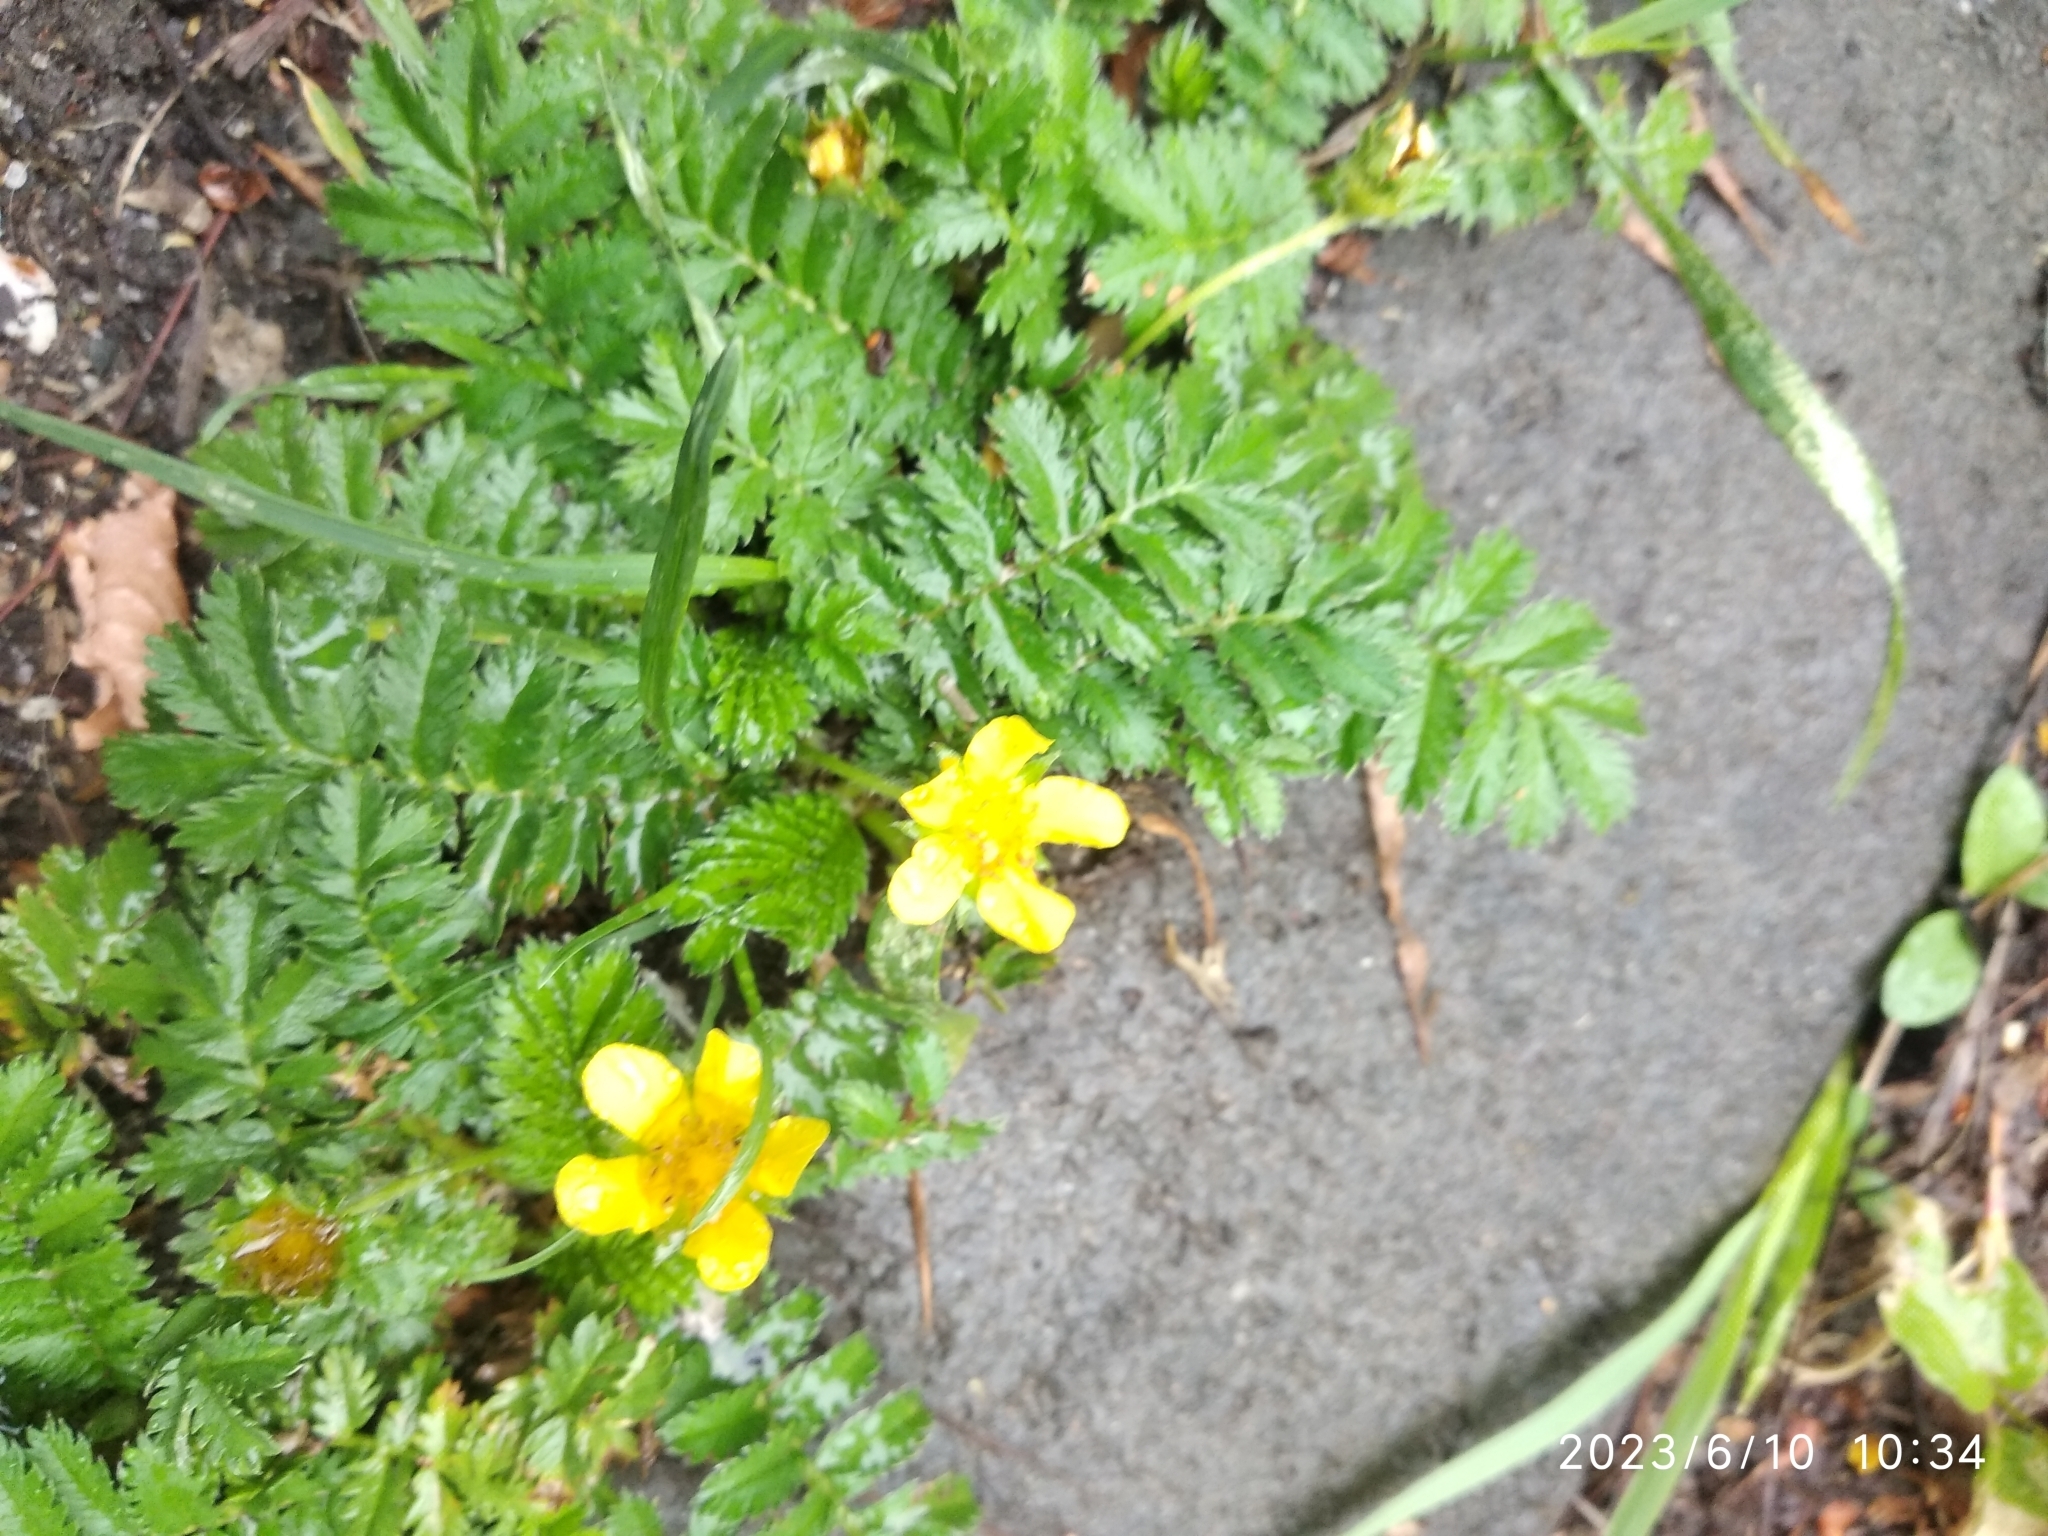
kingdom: Plantae
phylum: Tracheophyta
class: Magnoliopsida
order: Rosales
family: Rosaceae
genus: Argentina
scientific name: Argentina anserina
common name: Common silverweed
